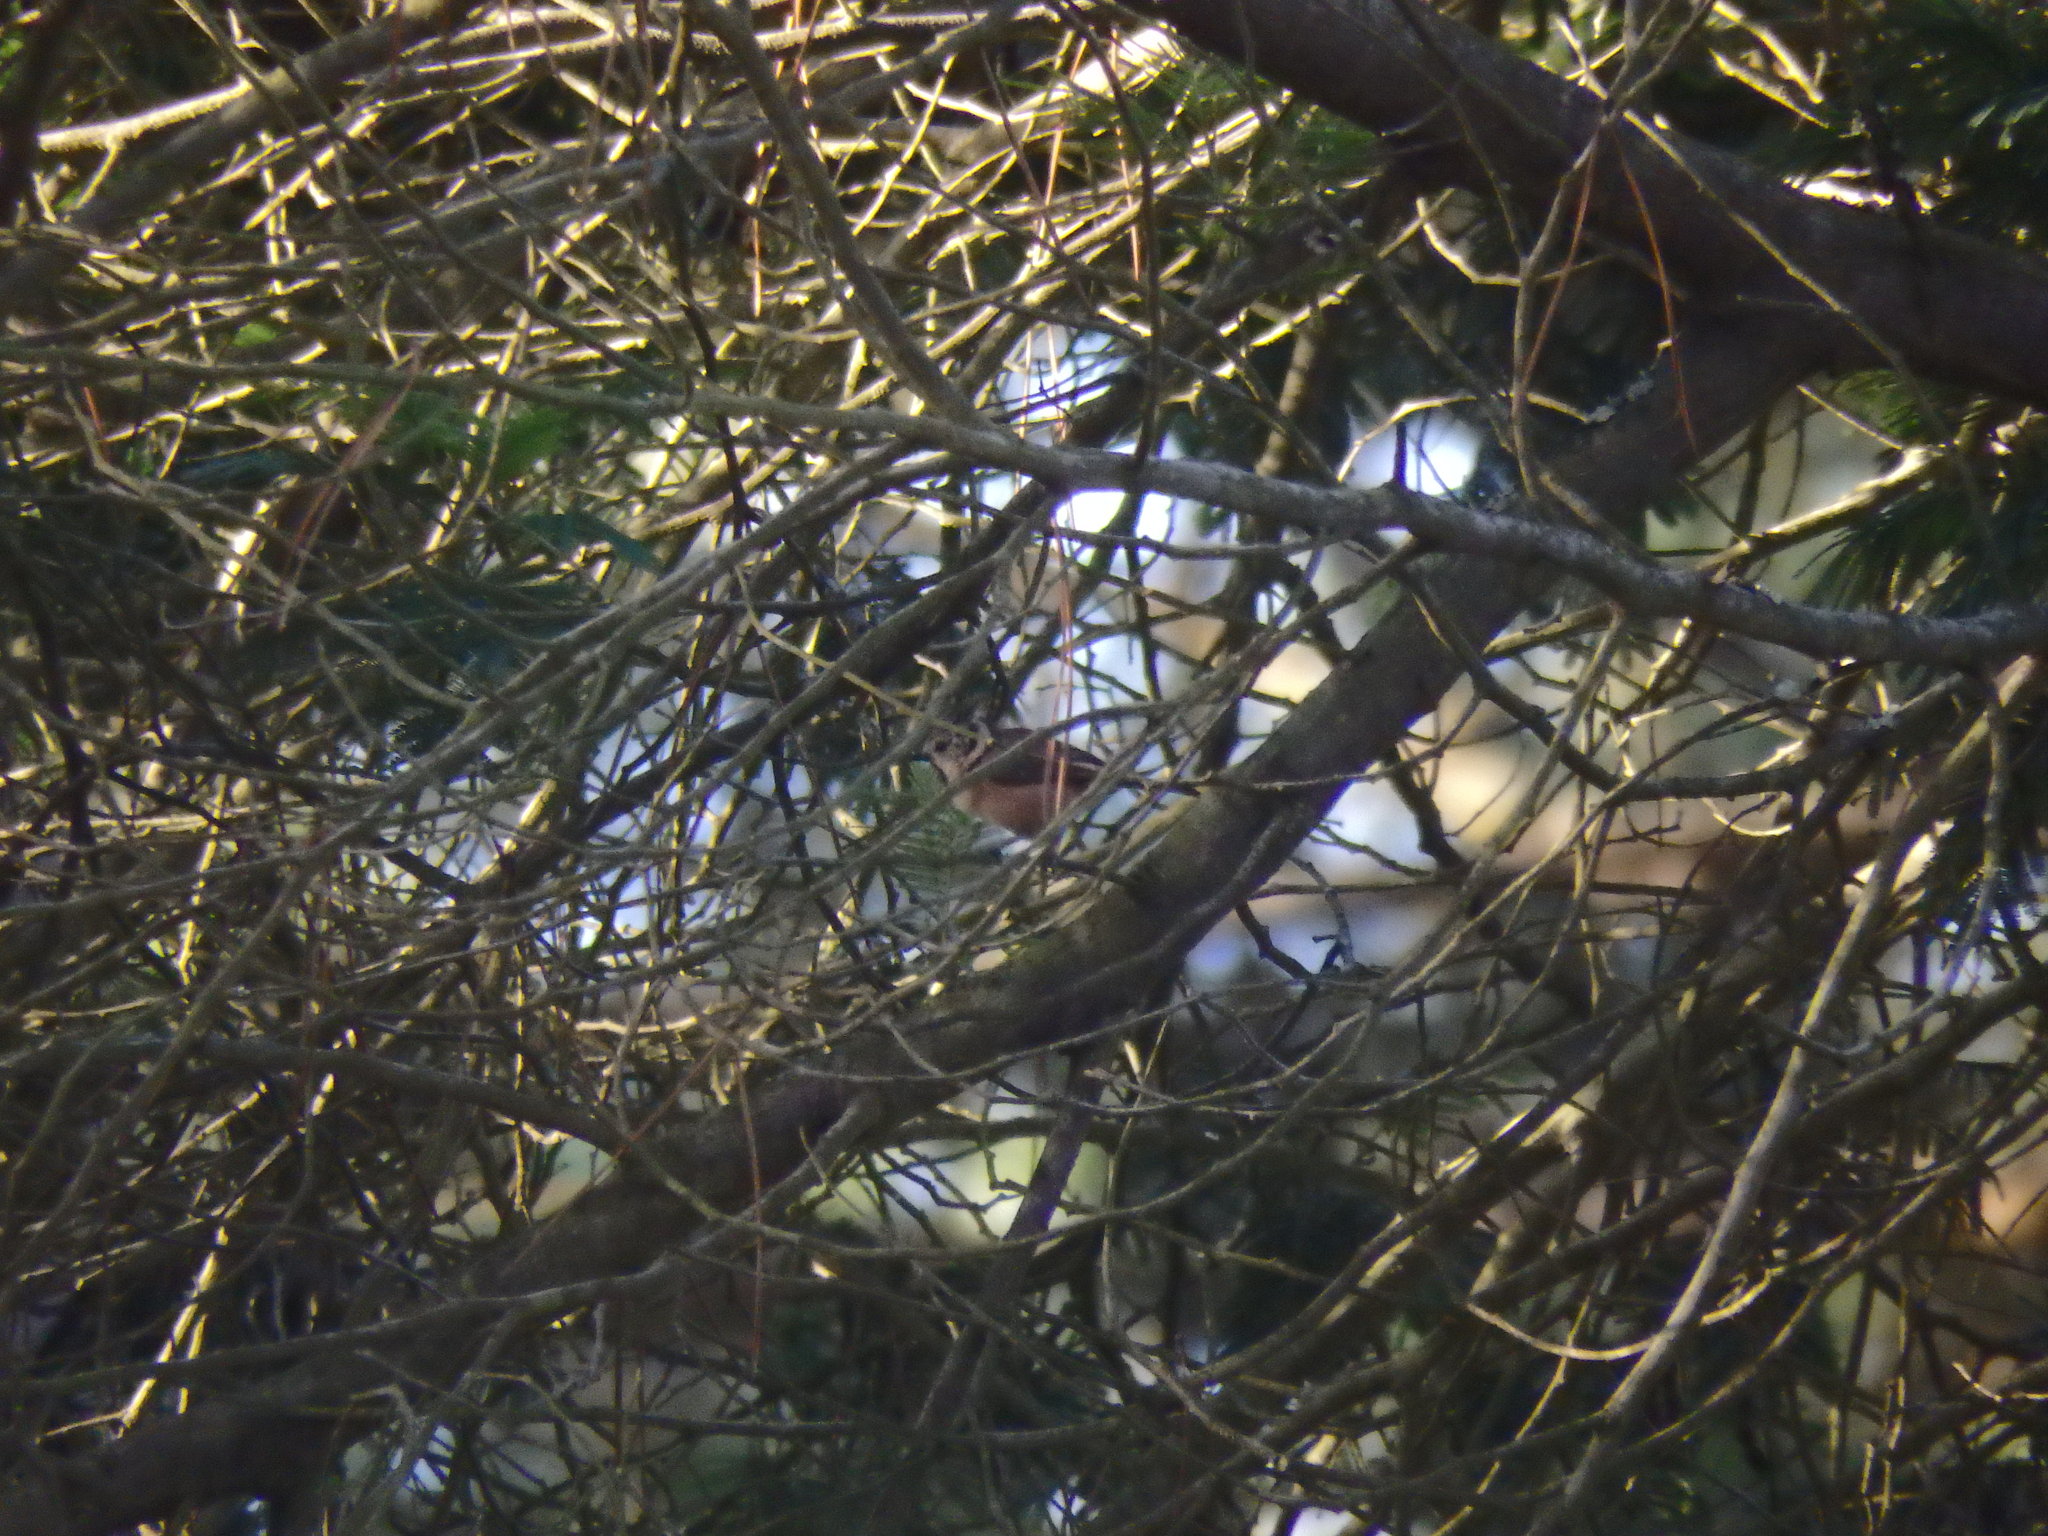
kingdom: Animalia
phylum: Chordata
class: Aves
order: Passeriformes
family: Paridae
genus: Lophophanes
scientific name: Lophophanes cristatus
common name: European crested tit
